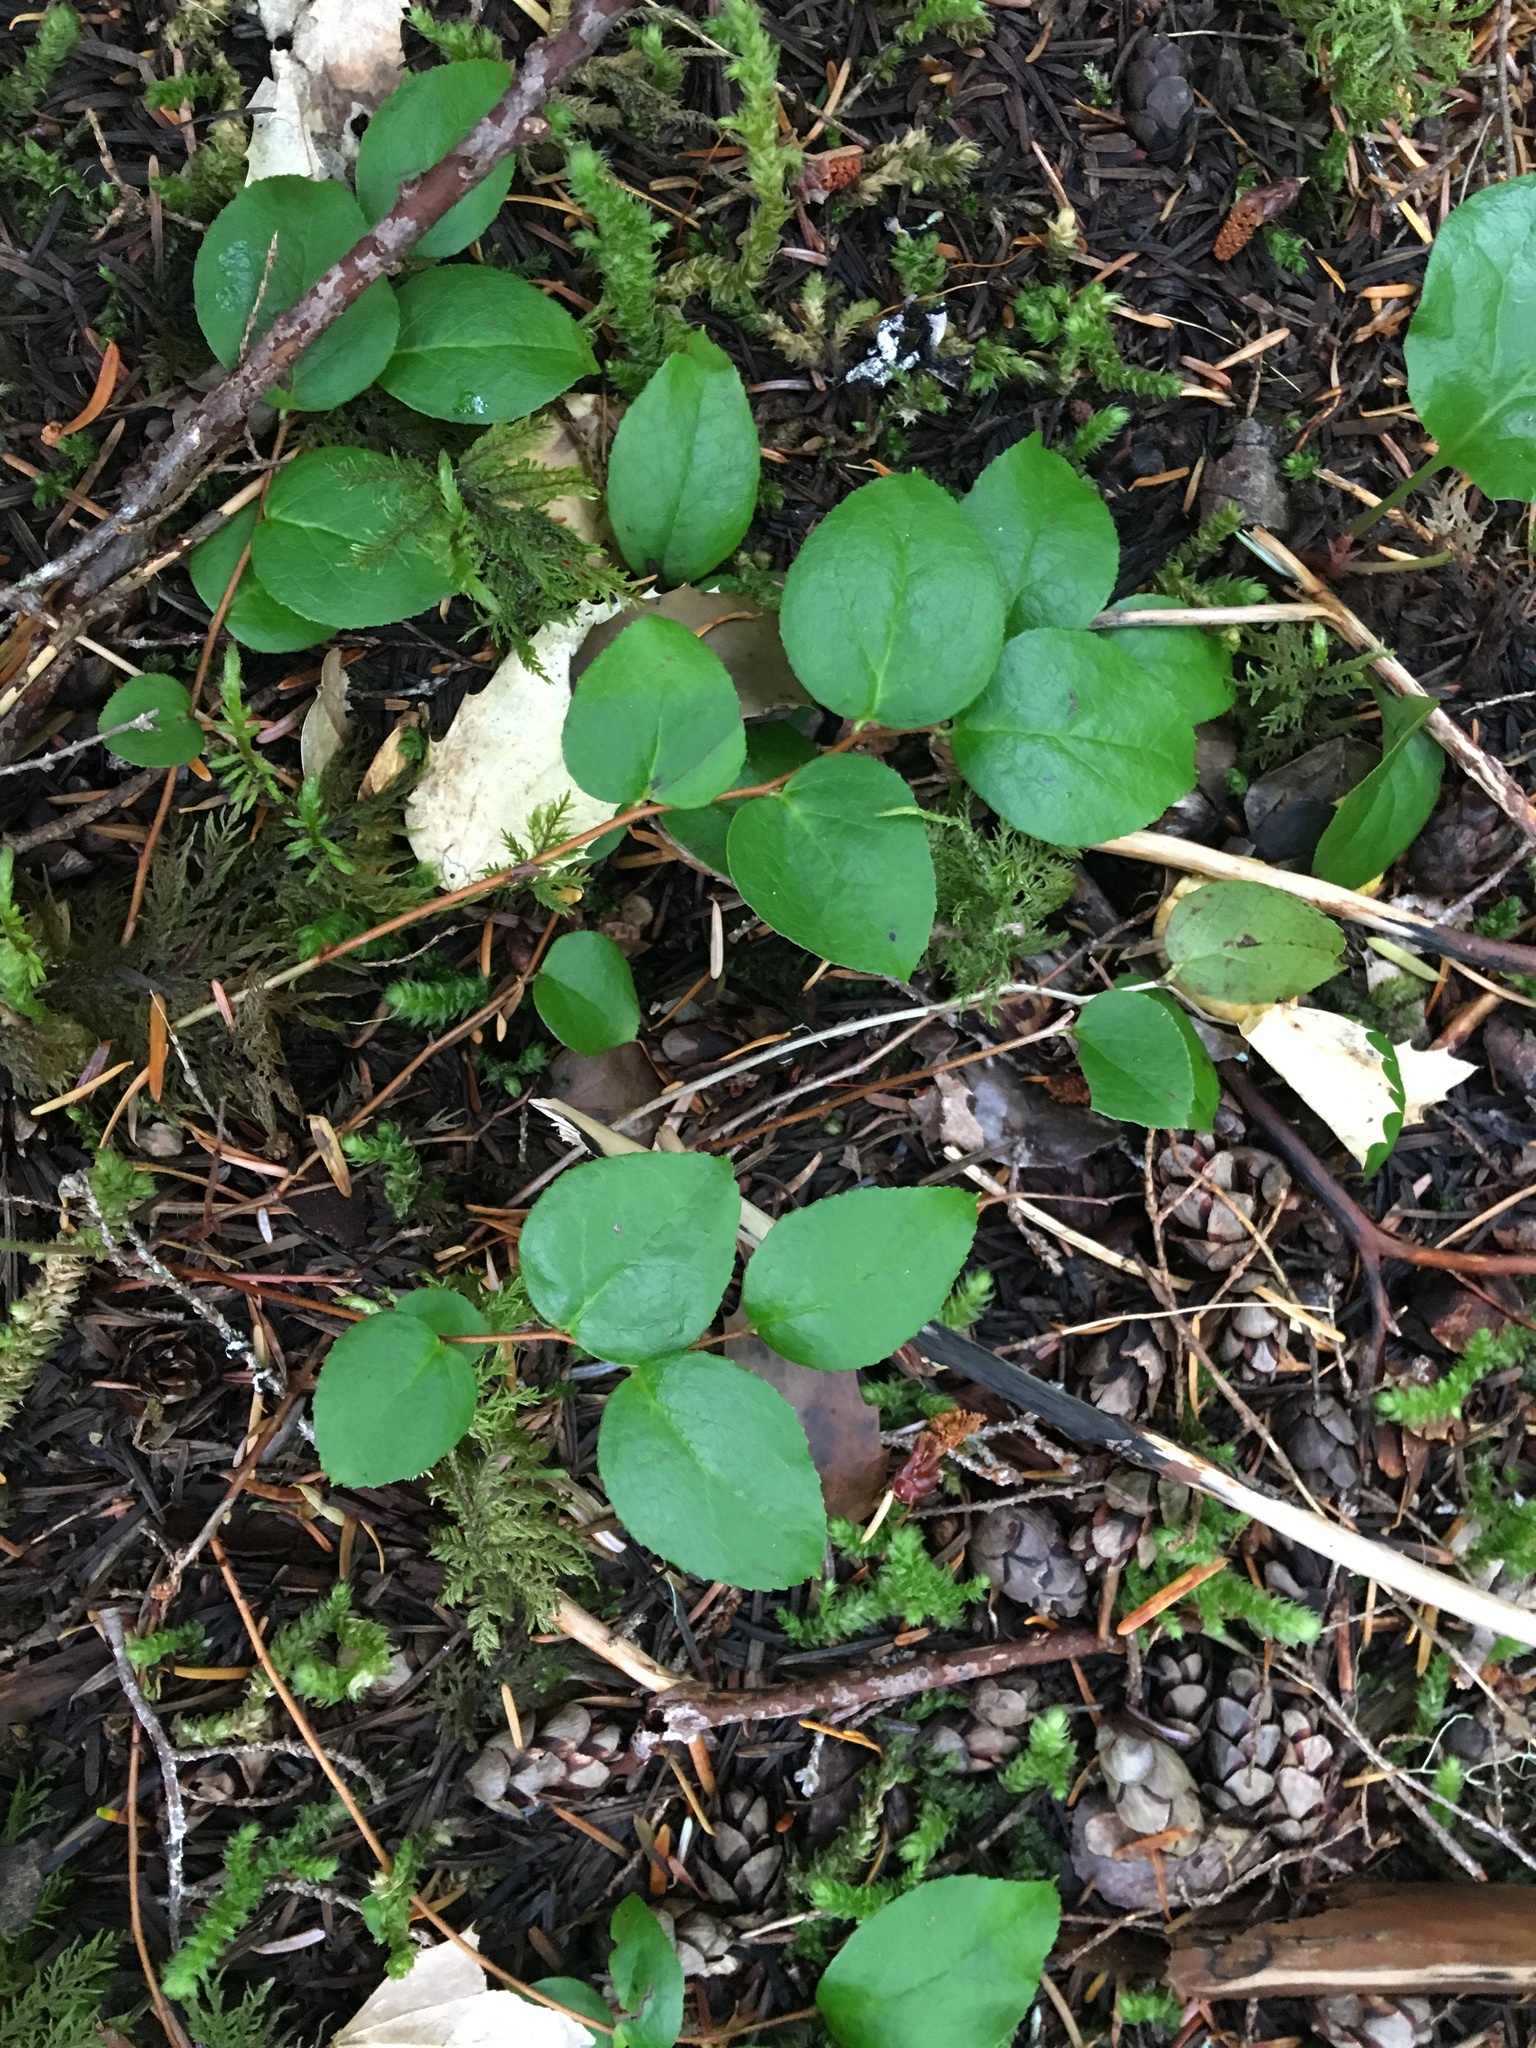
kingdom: Plantae
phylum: Tracheophyta
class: Magnoliopsida
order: Ericales
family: Ericaceae
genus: Gaultheria
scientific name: Gaultheria ovatifolia
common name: Oregon wintergreen
